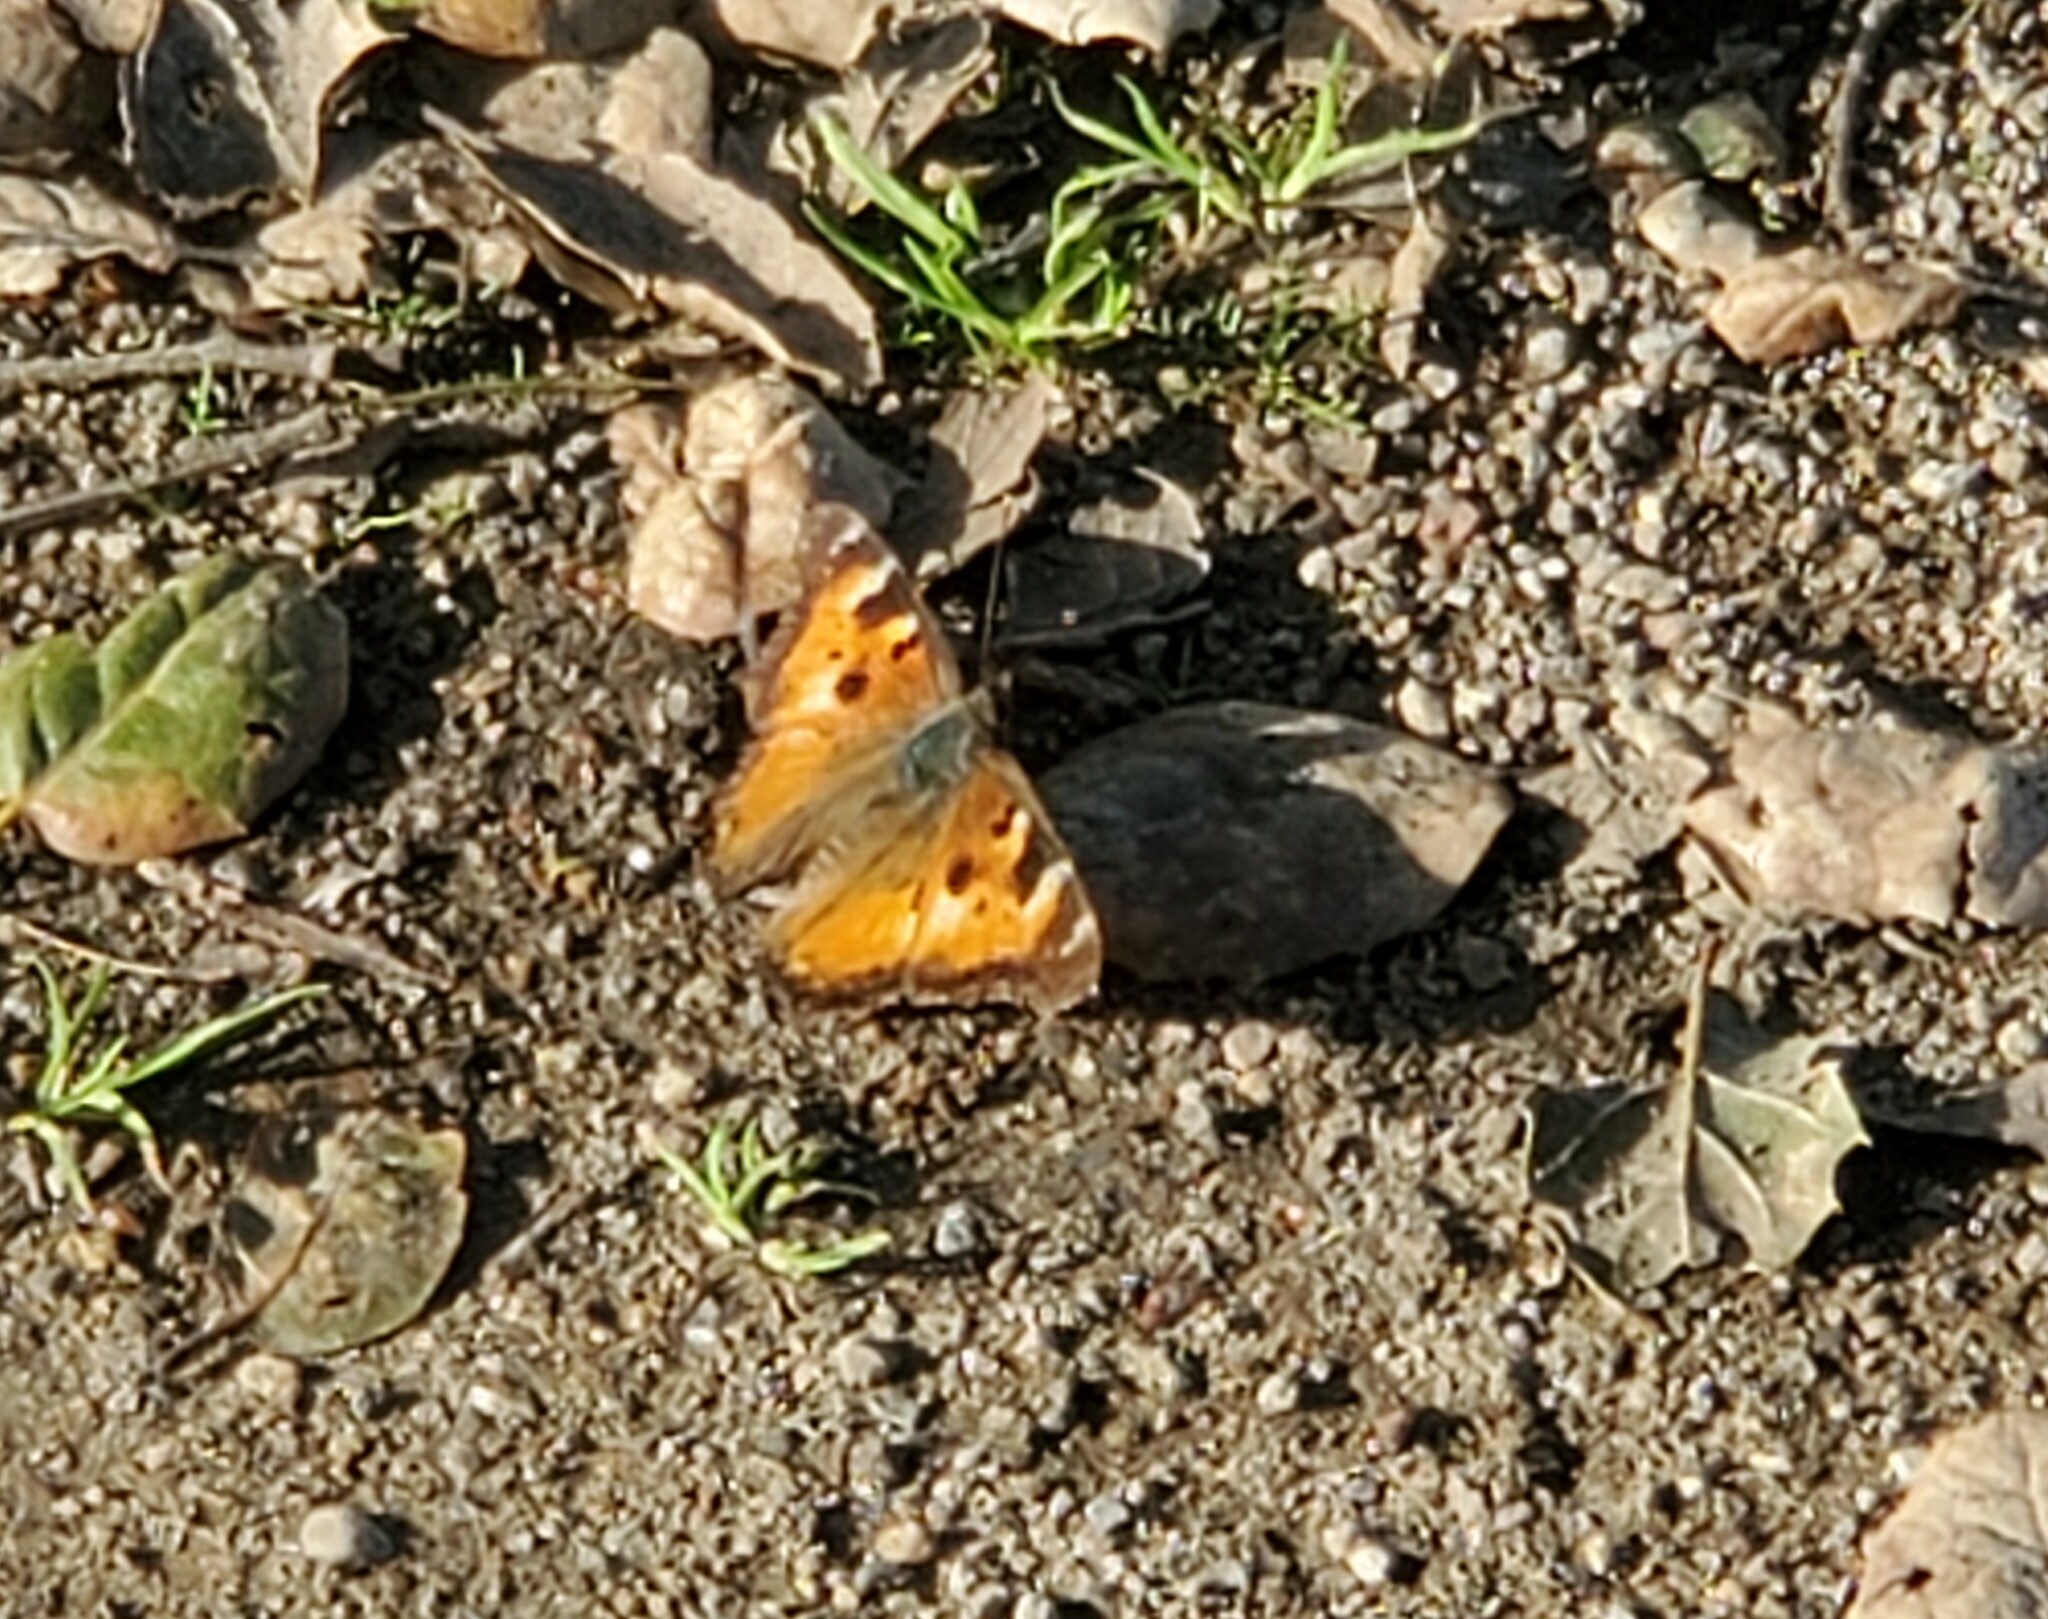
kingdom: Animalia
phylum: Arthropoda
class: Insecta
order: Lepidoptera
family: Nymphalidae
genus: Nymphalis
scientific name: Nymphalis californica
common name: California tortoiseshell
